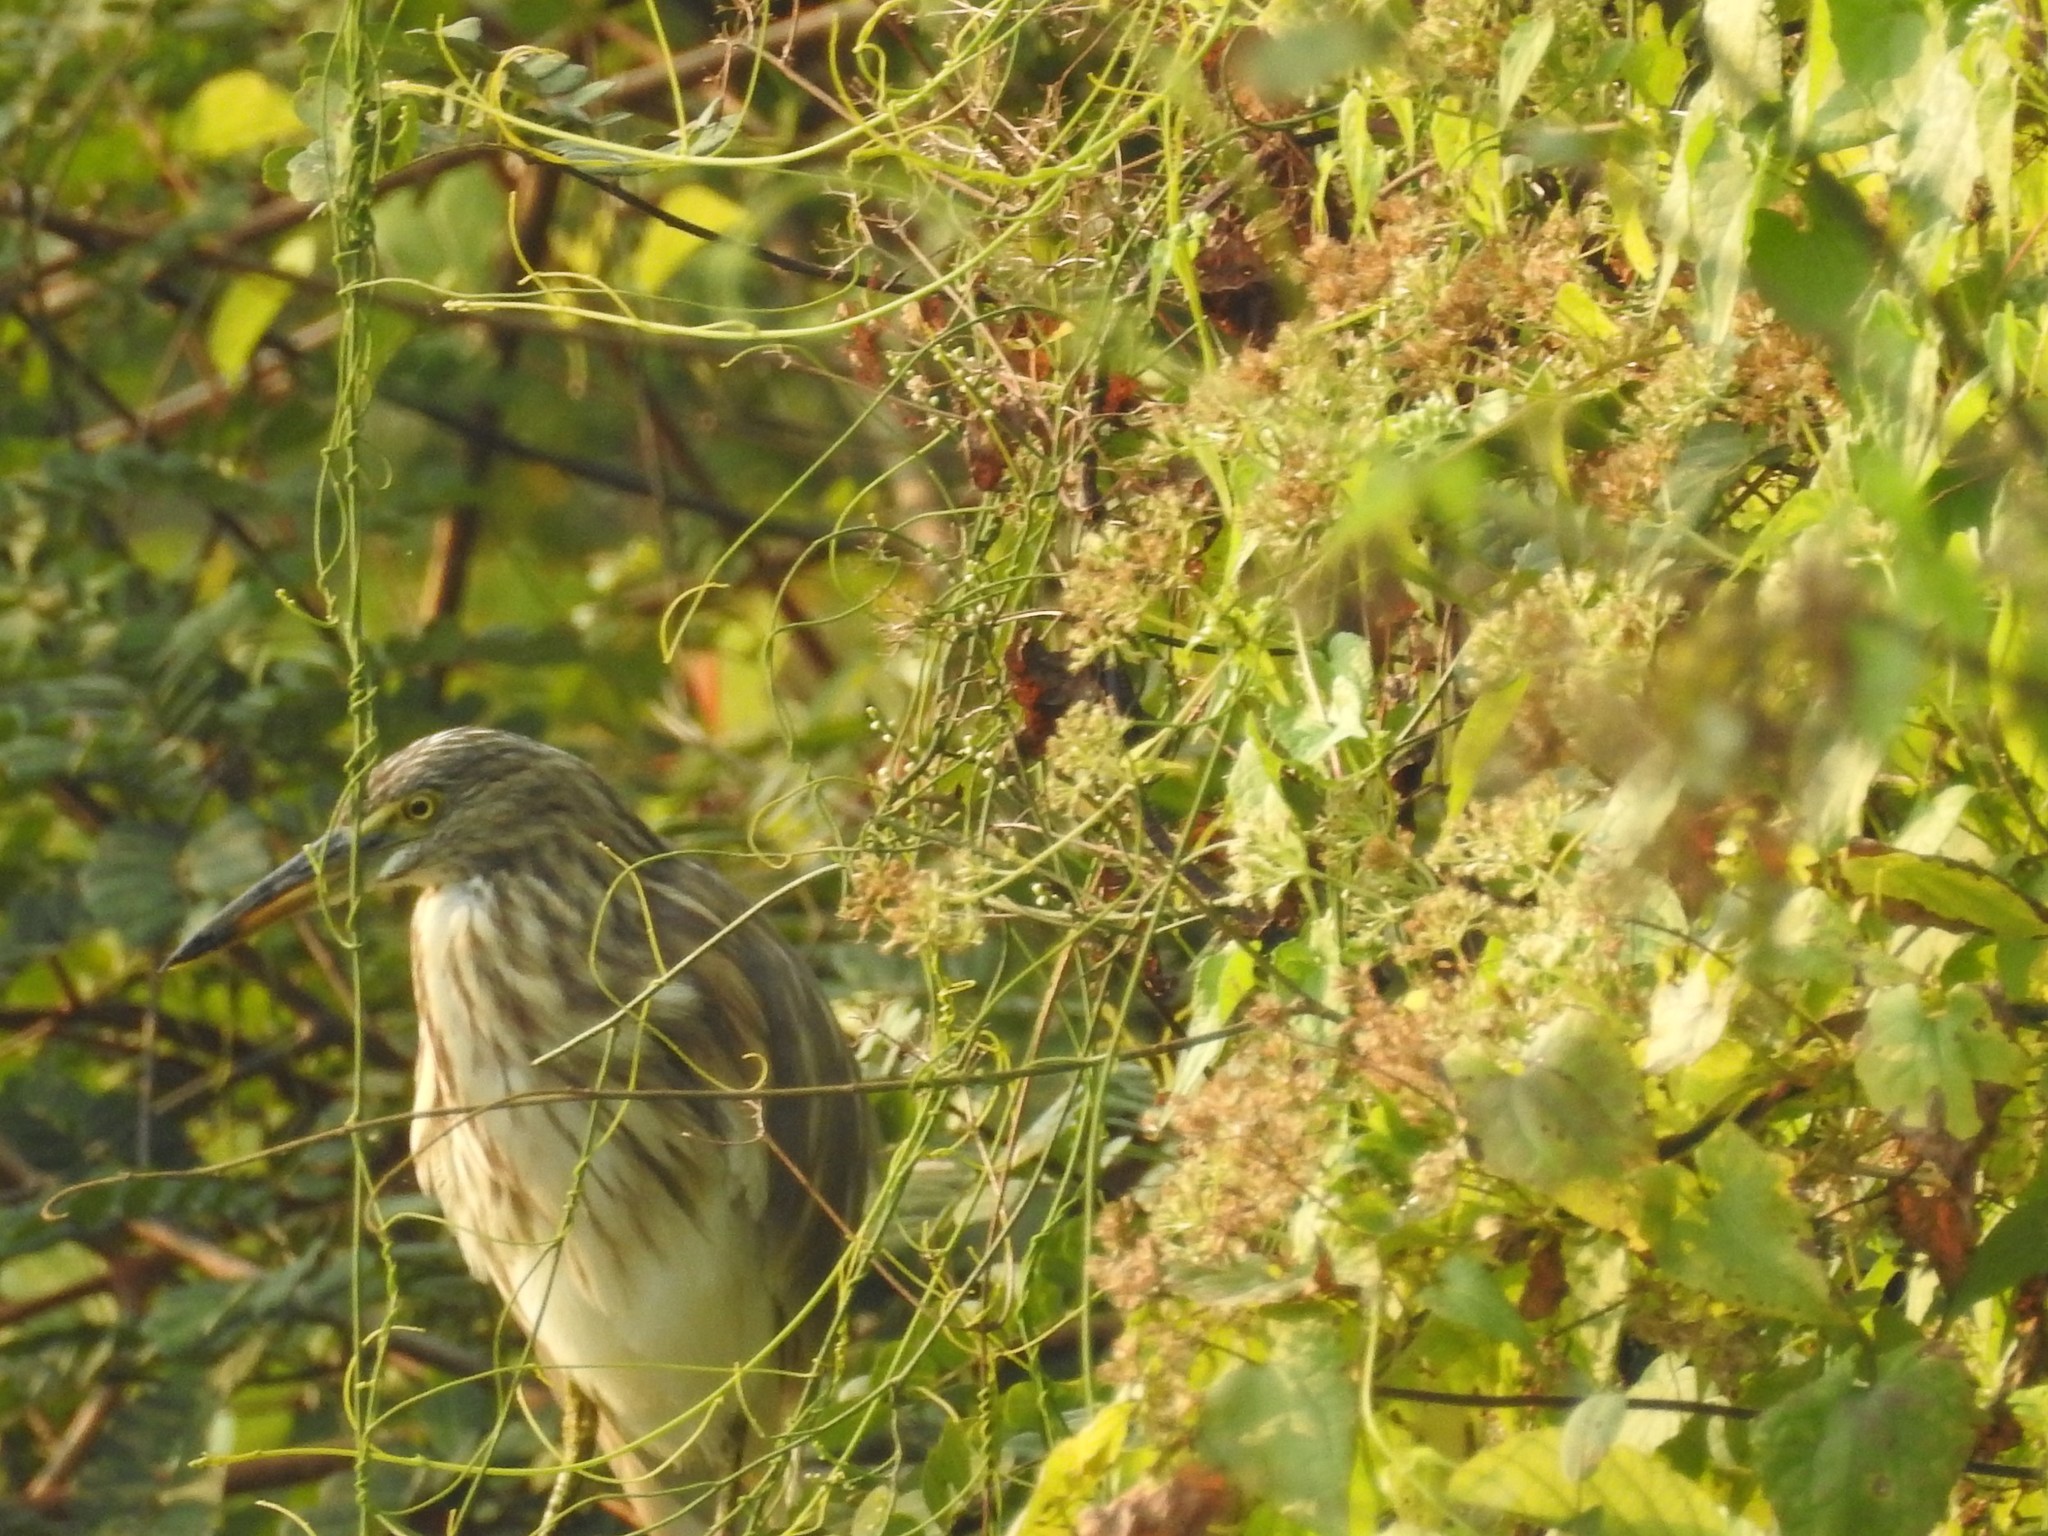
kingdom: Animalia
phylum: Chordata
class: Aves
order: Pelecaniformes
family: Ardeidae
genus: Ardeola
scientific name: Ardeola grayii
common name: Indian pond heron
